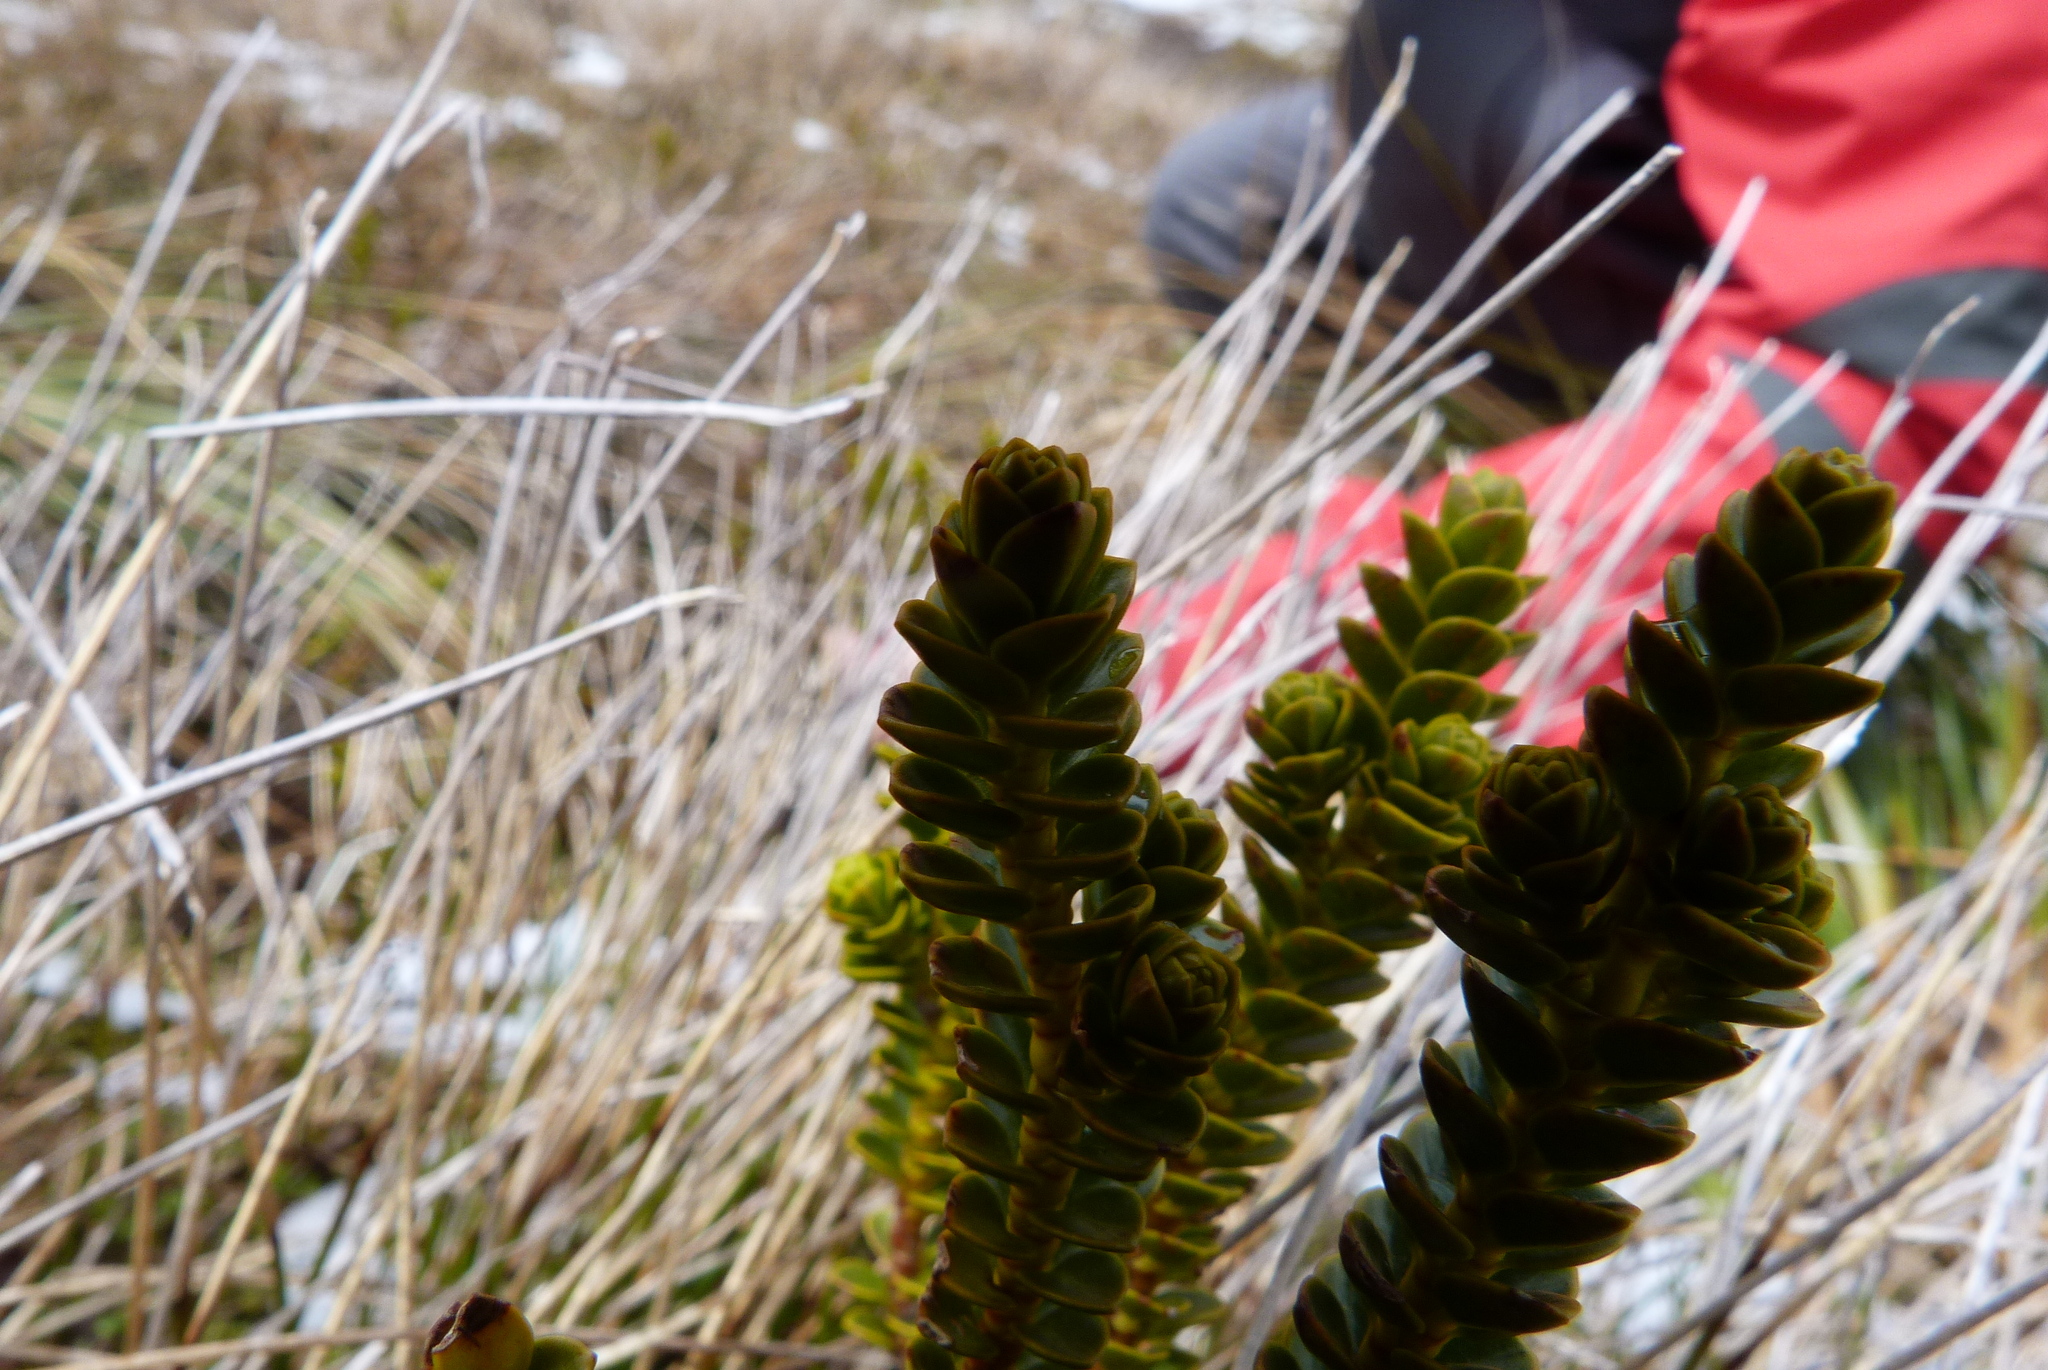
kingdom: Plantae
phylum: Tracheophyta
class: Magnoliopsida
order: Lamiales
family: Plantaginaceae
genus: Veronica
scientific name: Veronica pauciramosa
